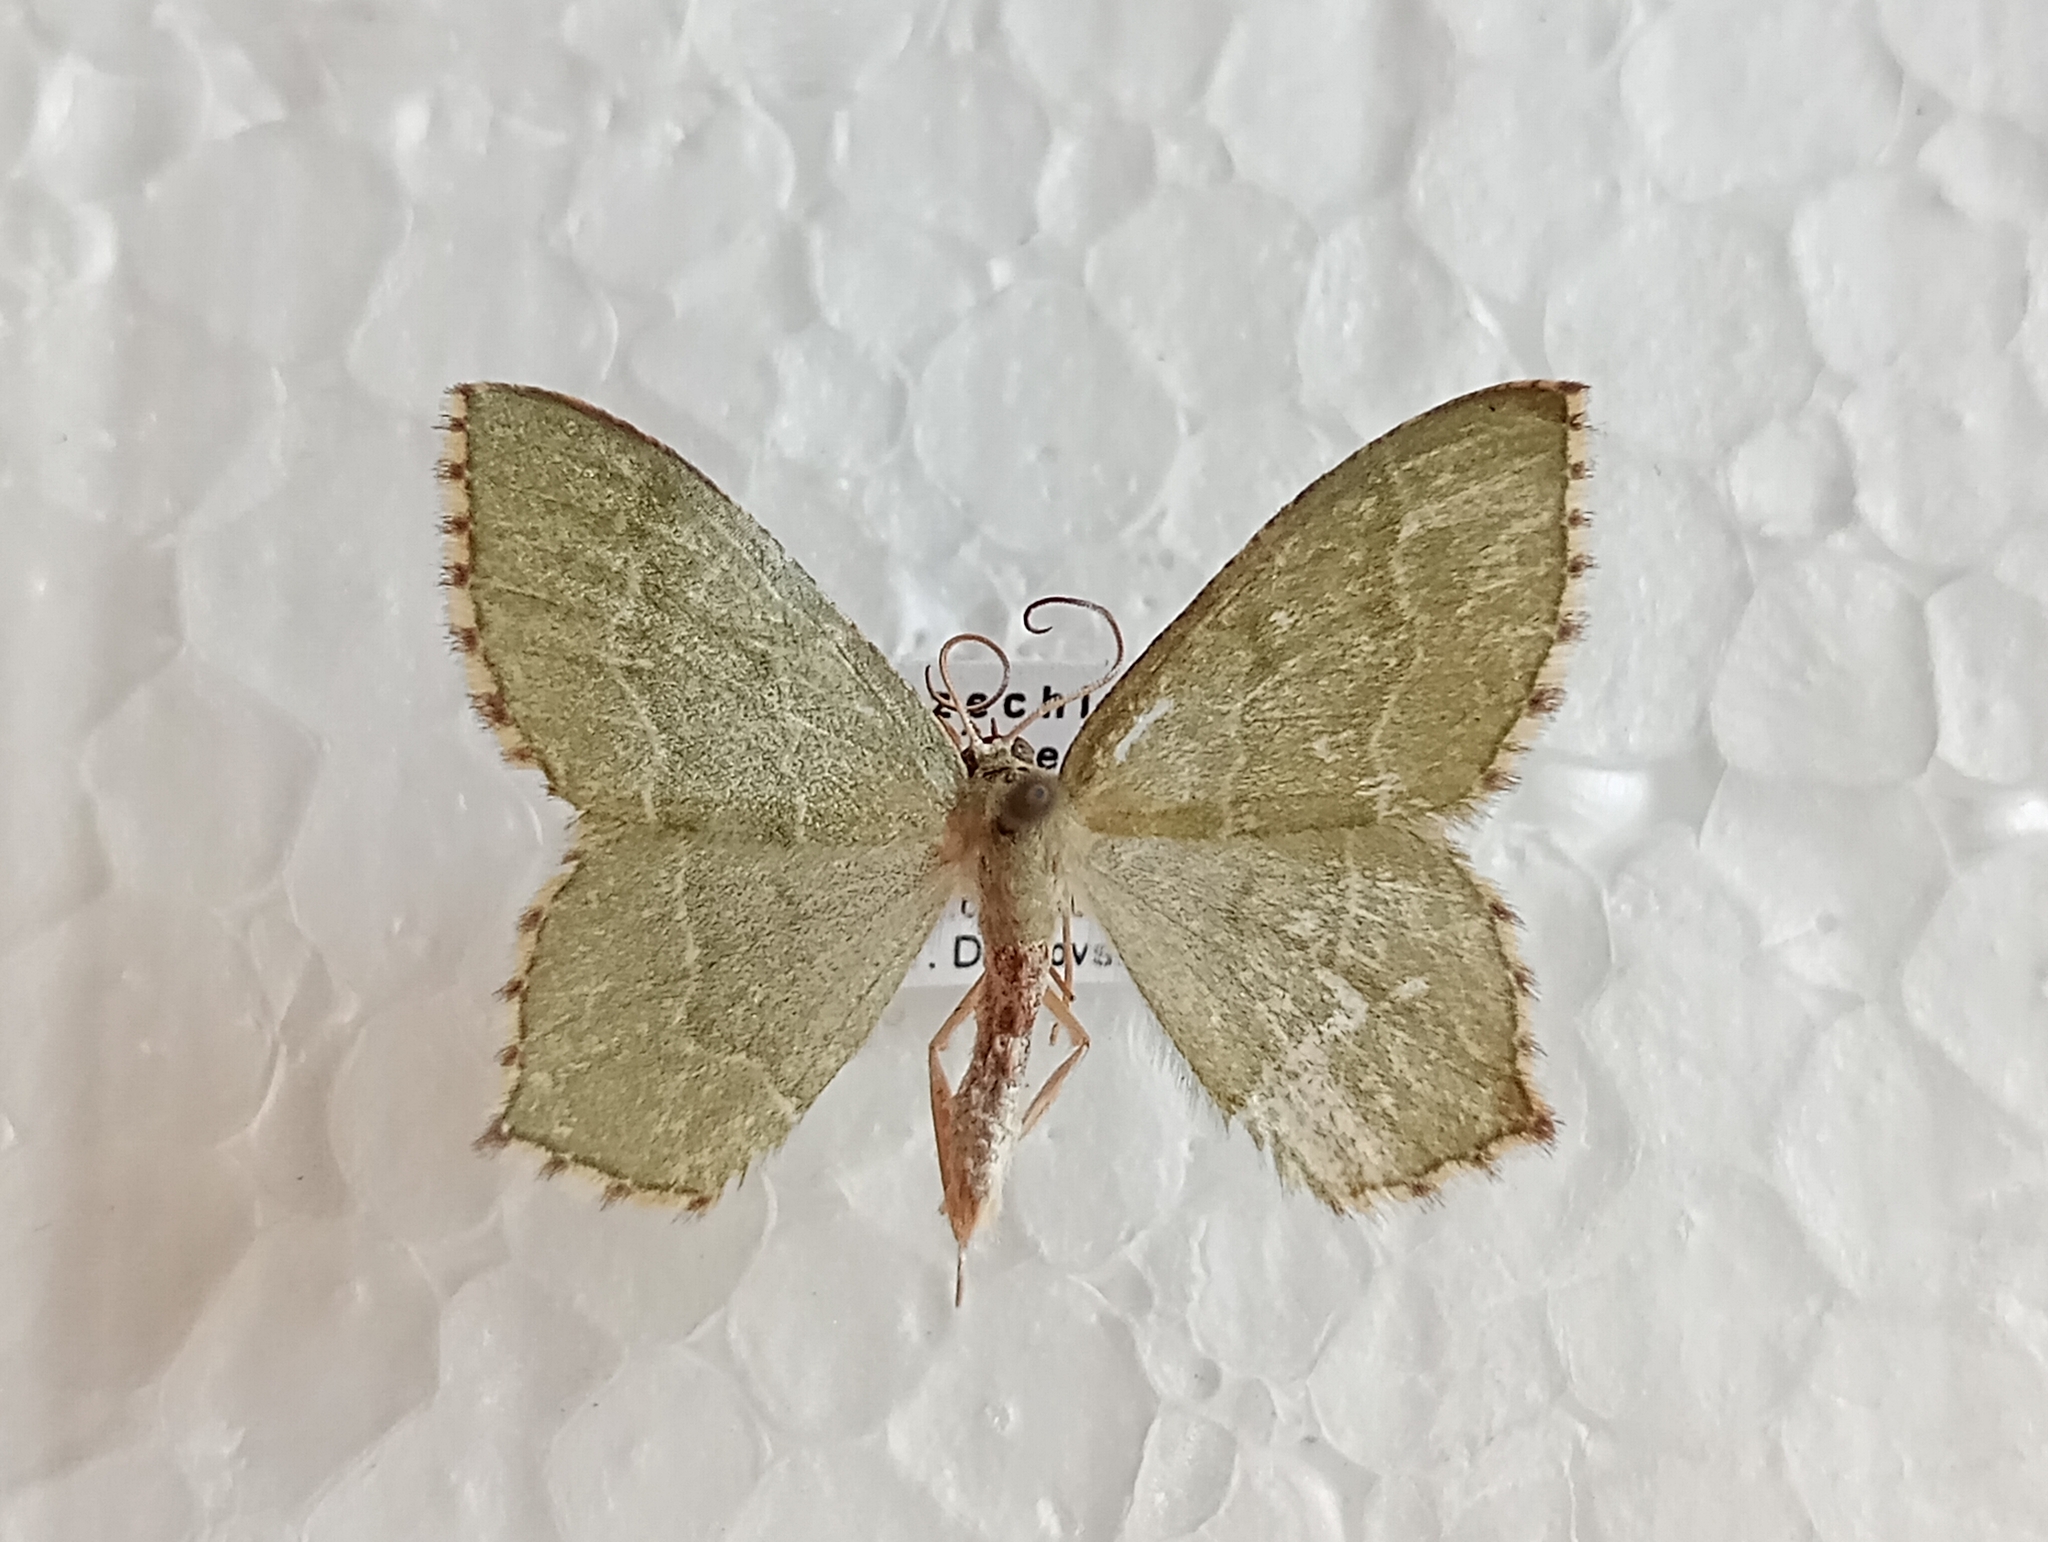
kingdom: Animalia
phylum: Arthropoda
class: Insecta
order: Lepidoptera
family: Geometridae
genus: Hemithea
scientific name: Hemithea aestivaria
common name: Common emerald
